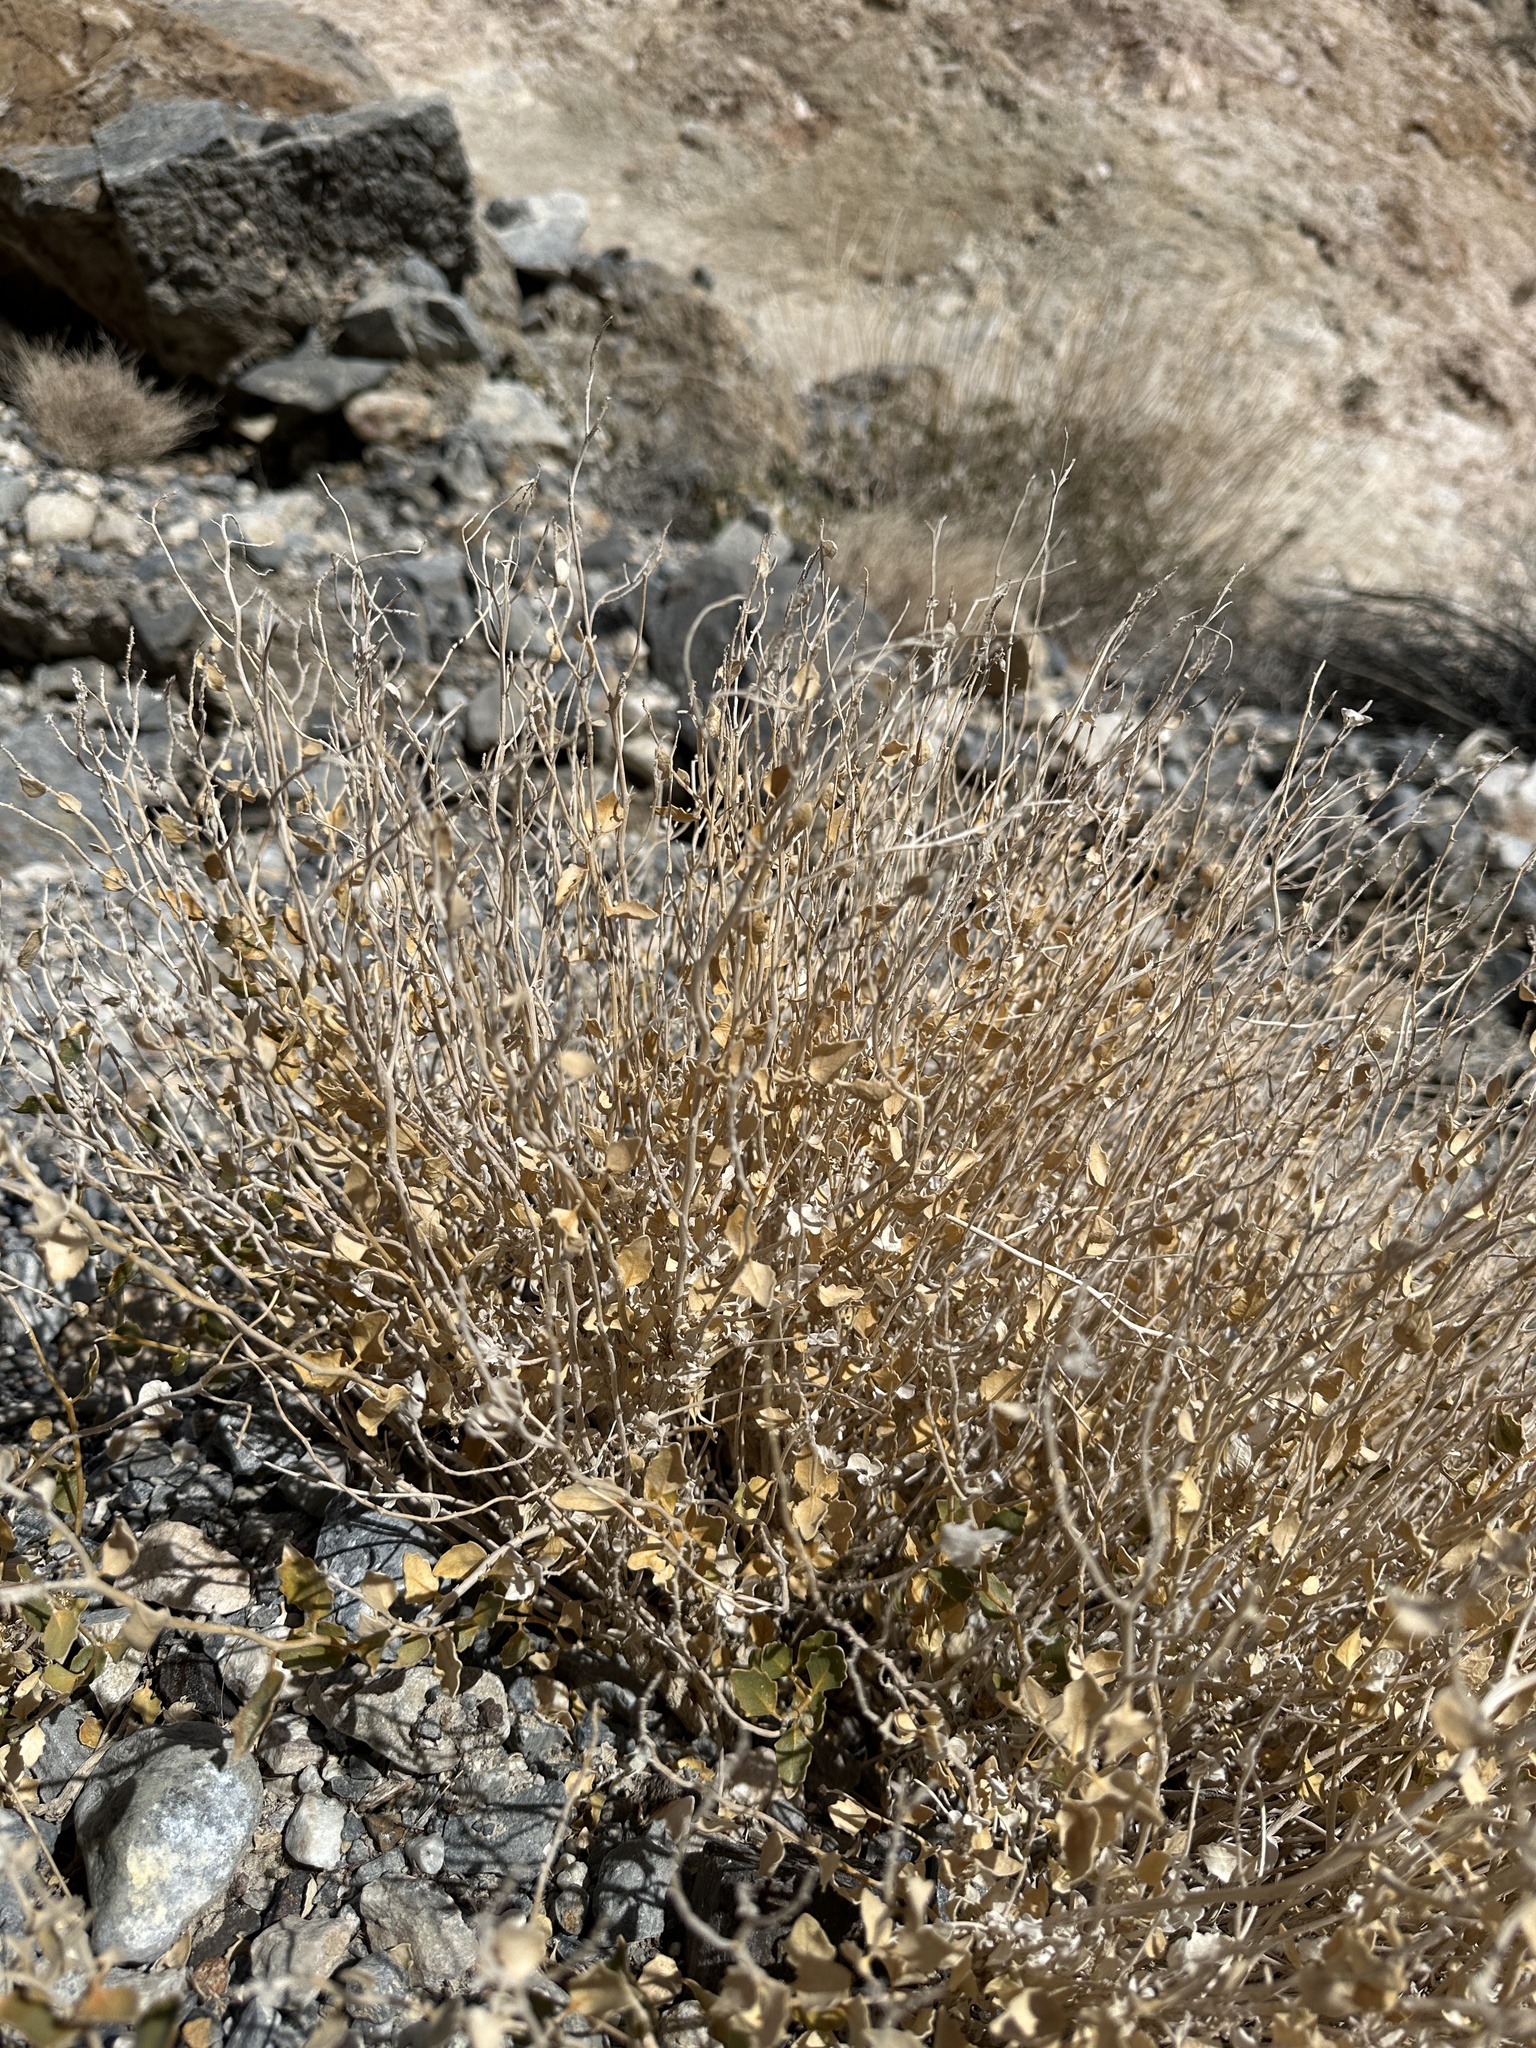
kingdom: Plantae
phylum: Tracheophyta
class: Magnoliopsida
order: Cornales
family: Loasaceae
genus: Petalonyx
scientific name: Petalonyx nitidus
